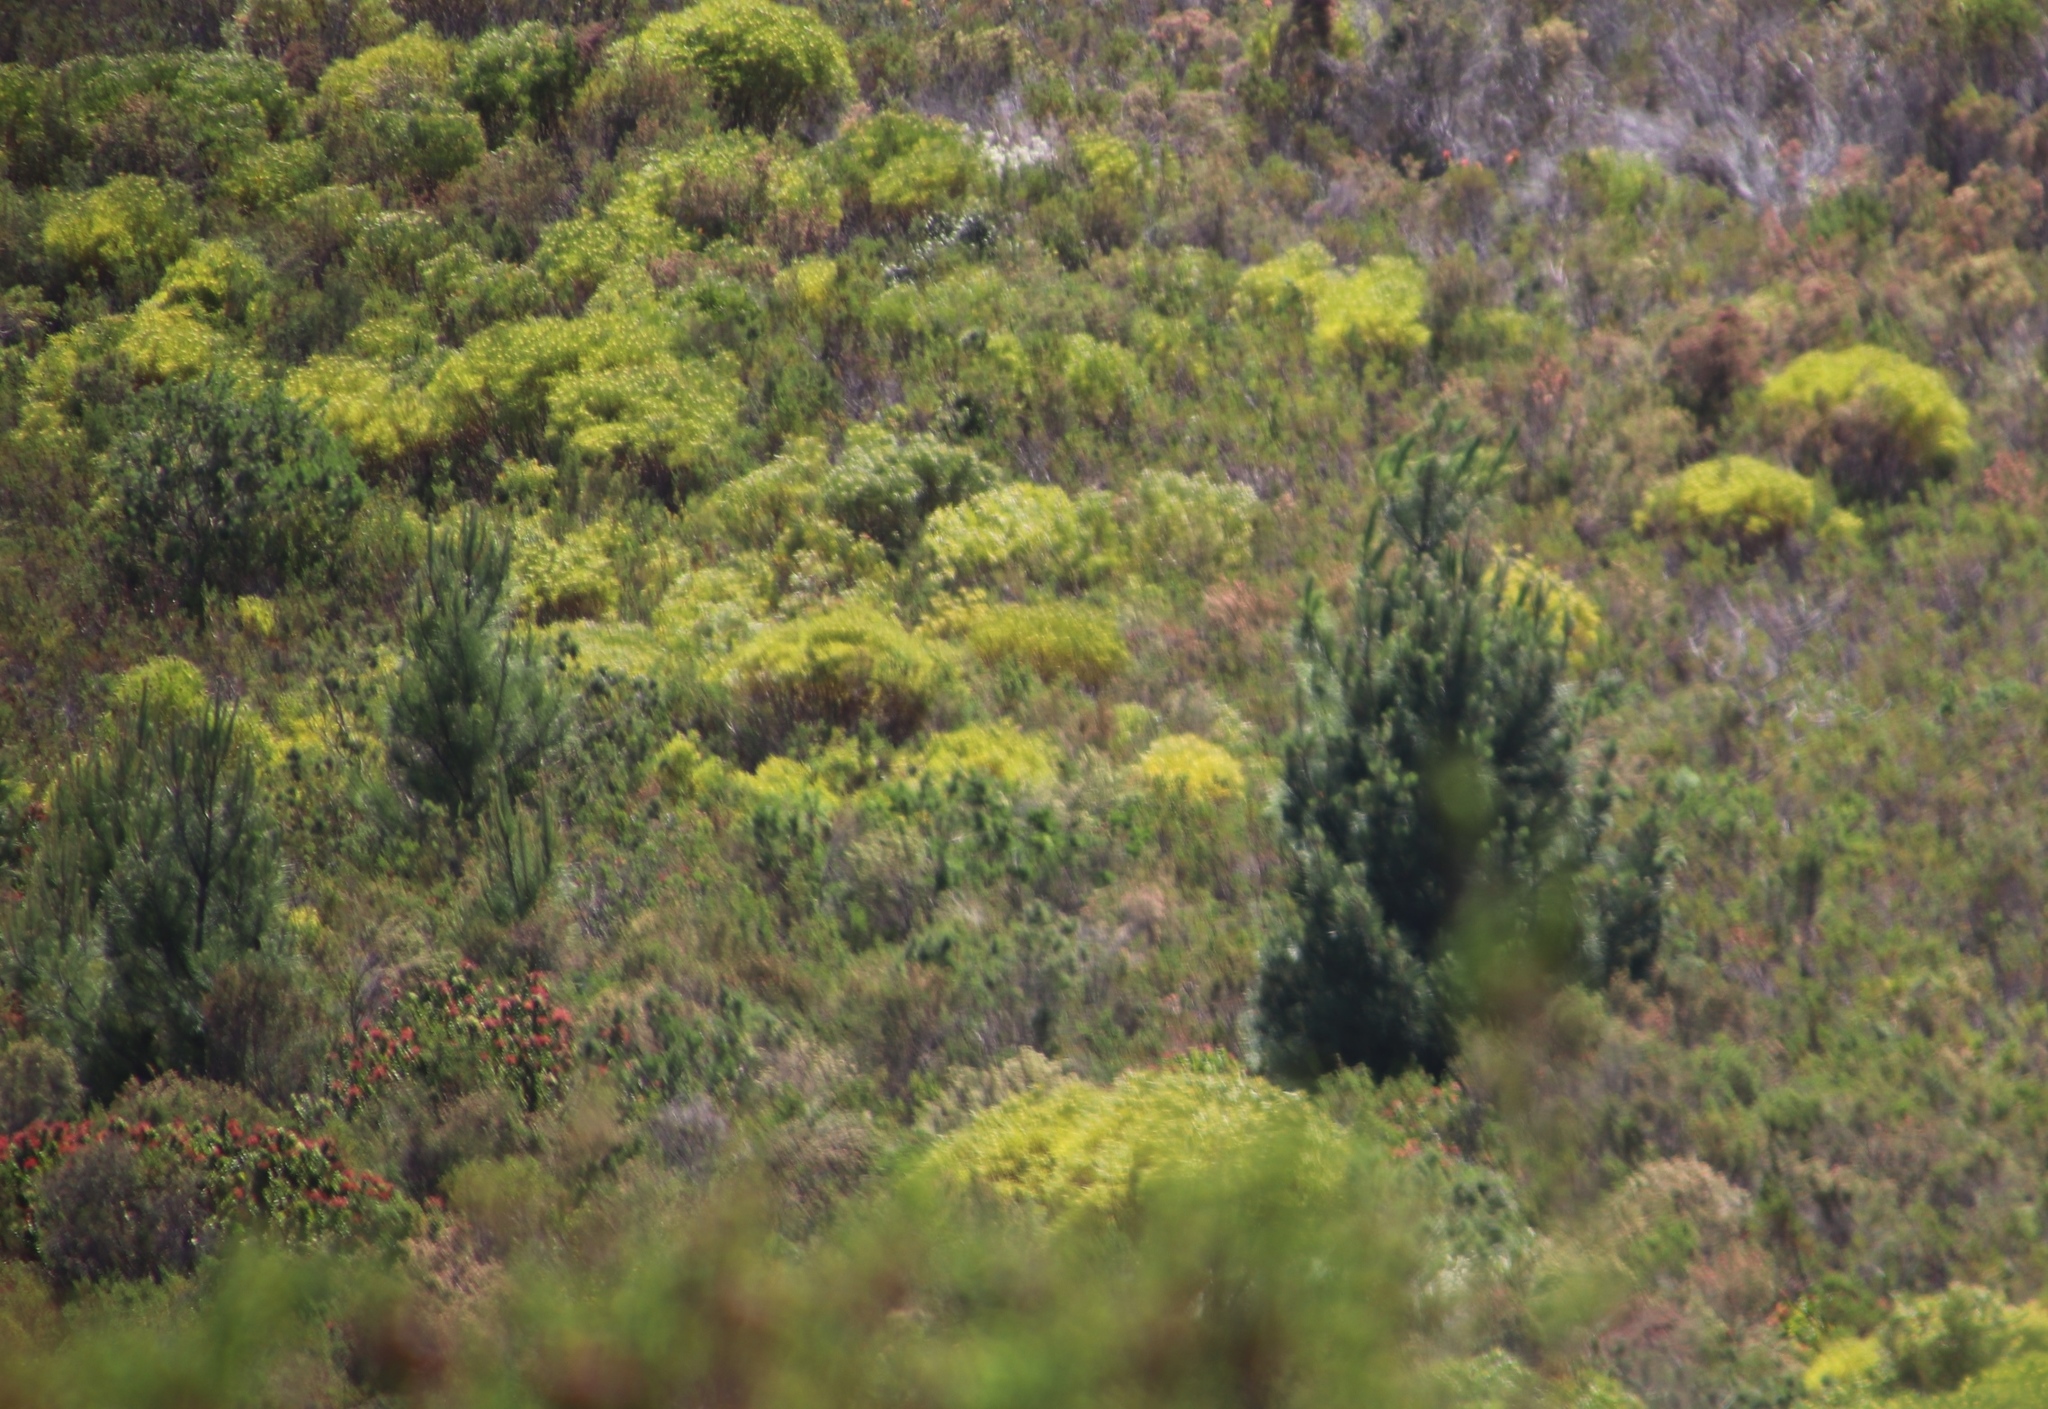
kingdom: Plantae
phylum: Tracheophyta
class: Pinopsida
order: Pinales
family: Pinaceae
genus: Pinus
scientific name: Pinus pinaster
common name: Maritime pine
